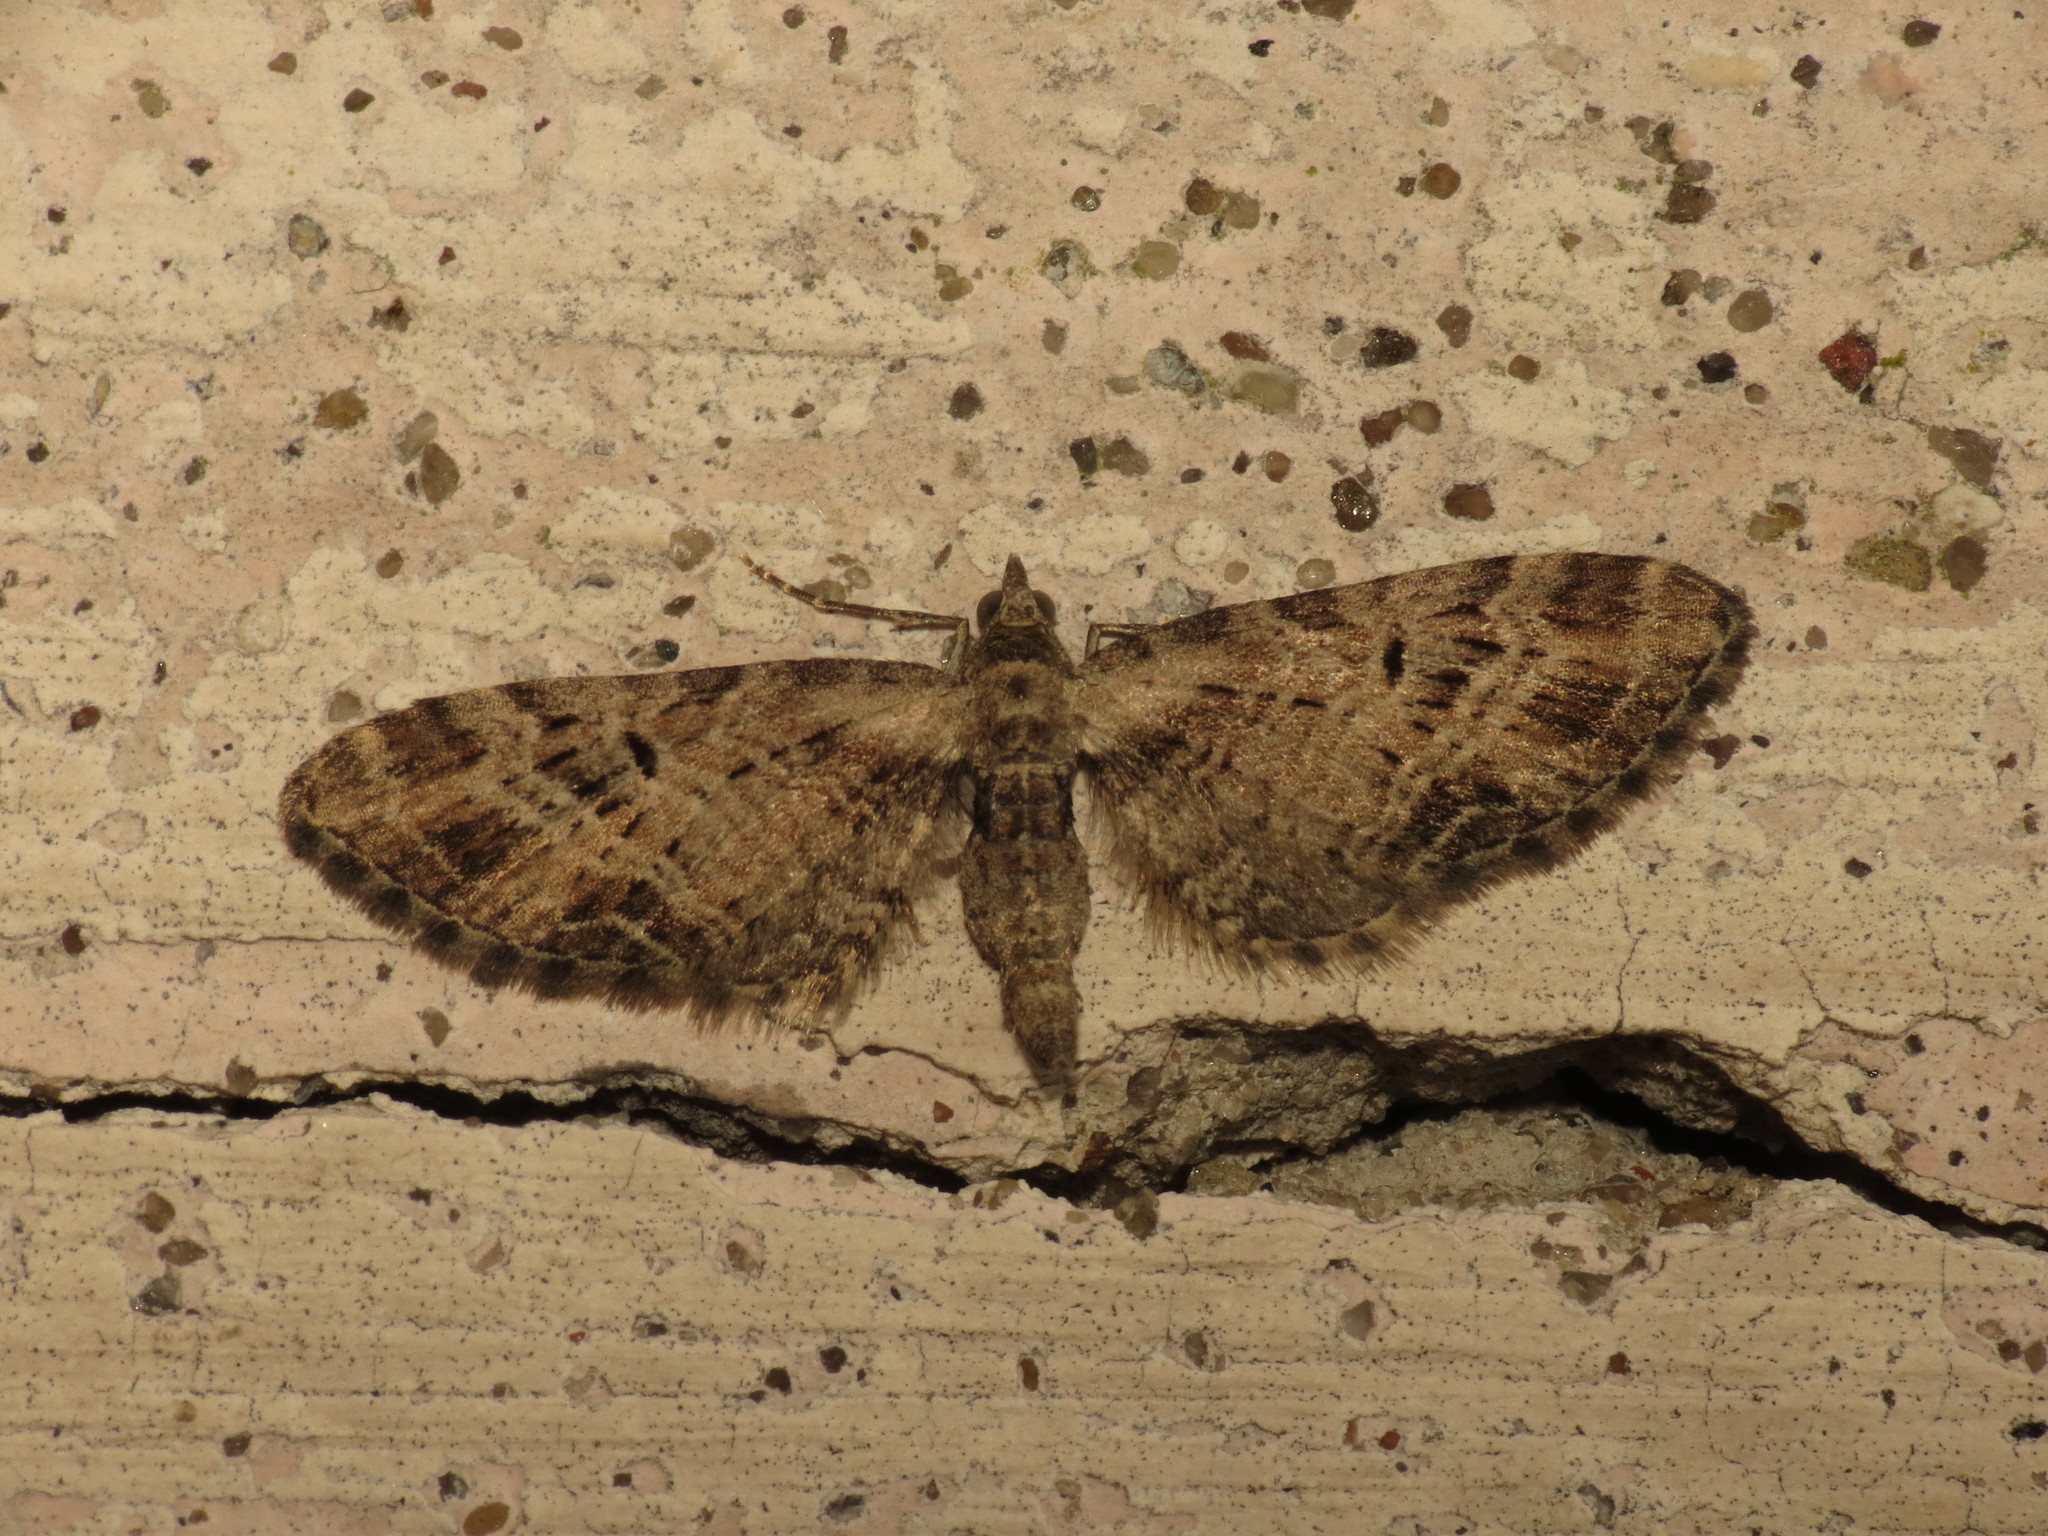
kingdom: Animalia
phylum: Arthropoda
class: Insecta
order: Lepidoptera
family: Geometridae
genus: Eupithecia
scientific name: Eupithecia exiguata
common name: Mottled pug
